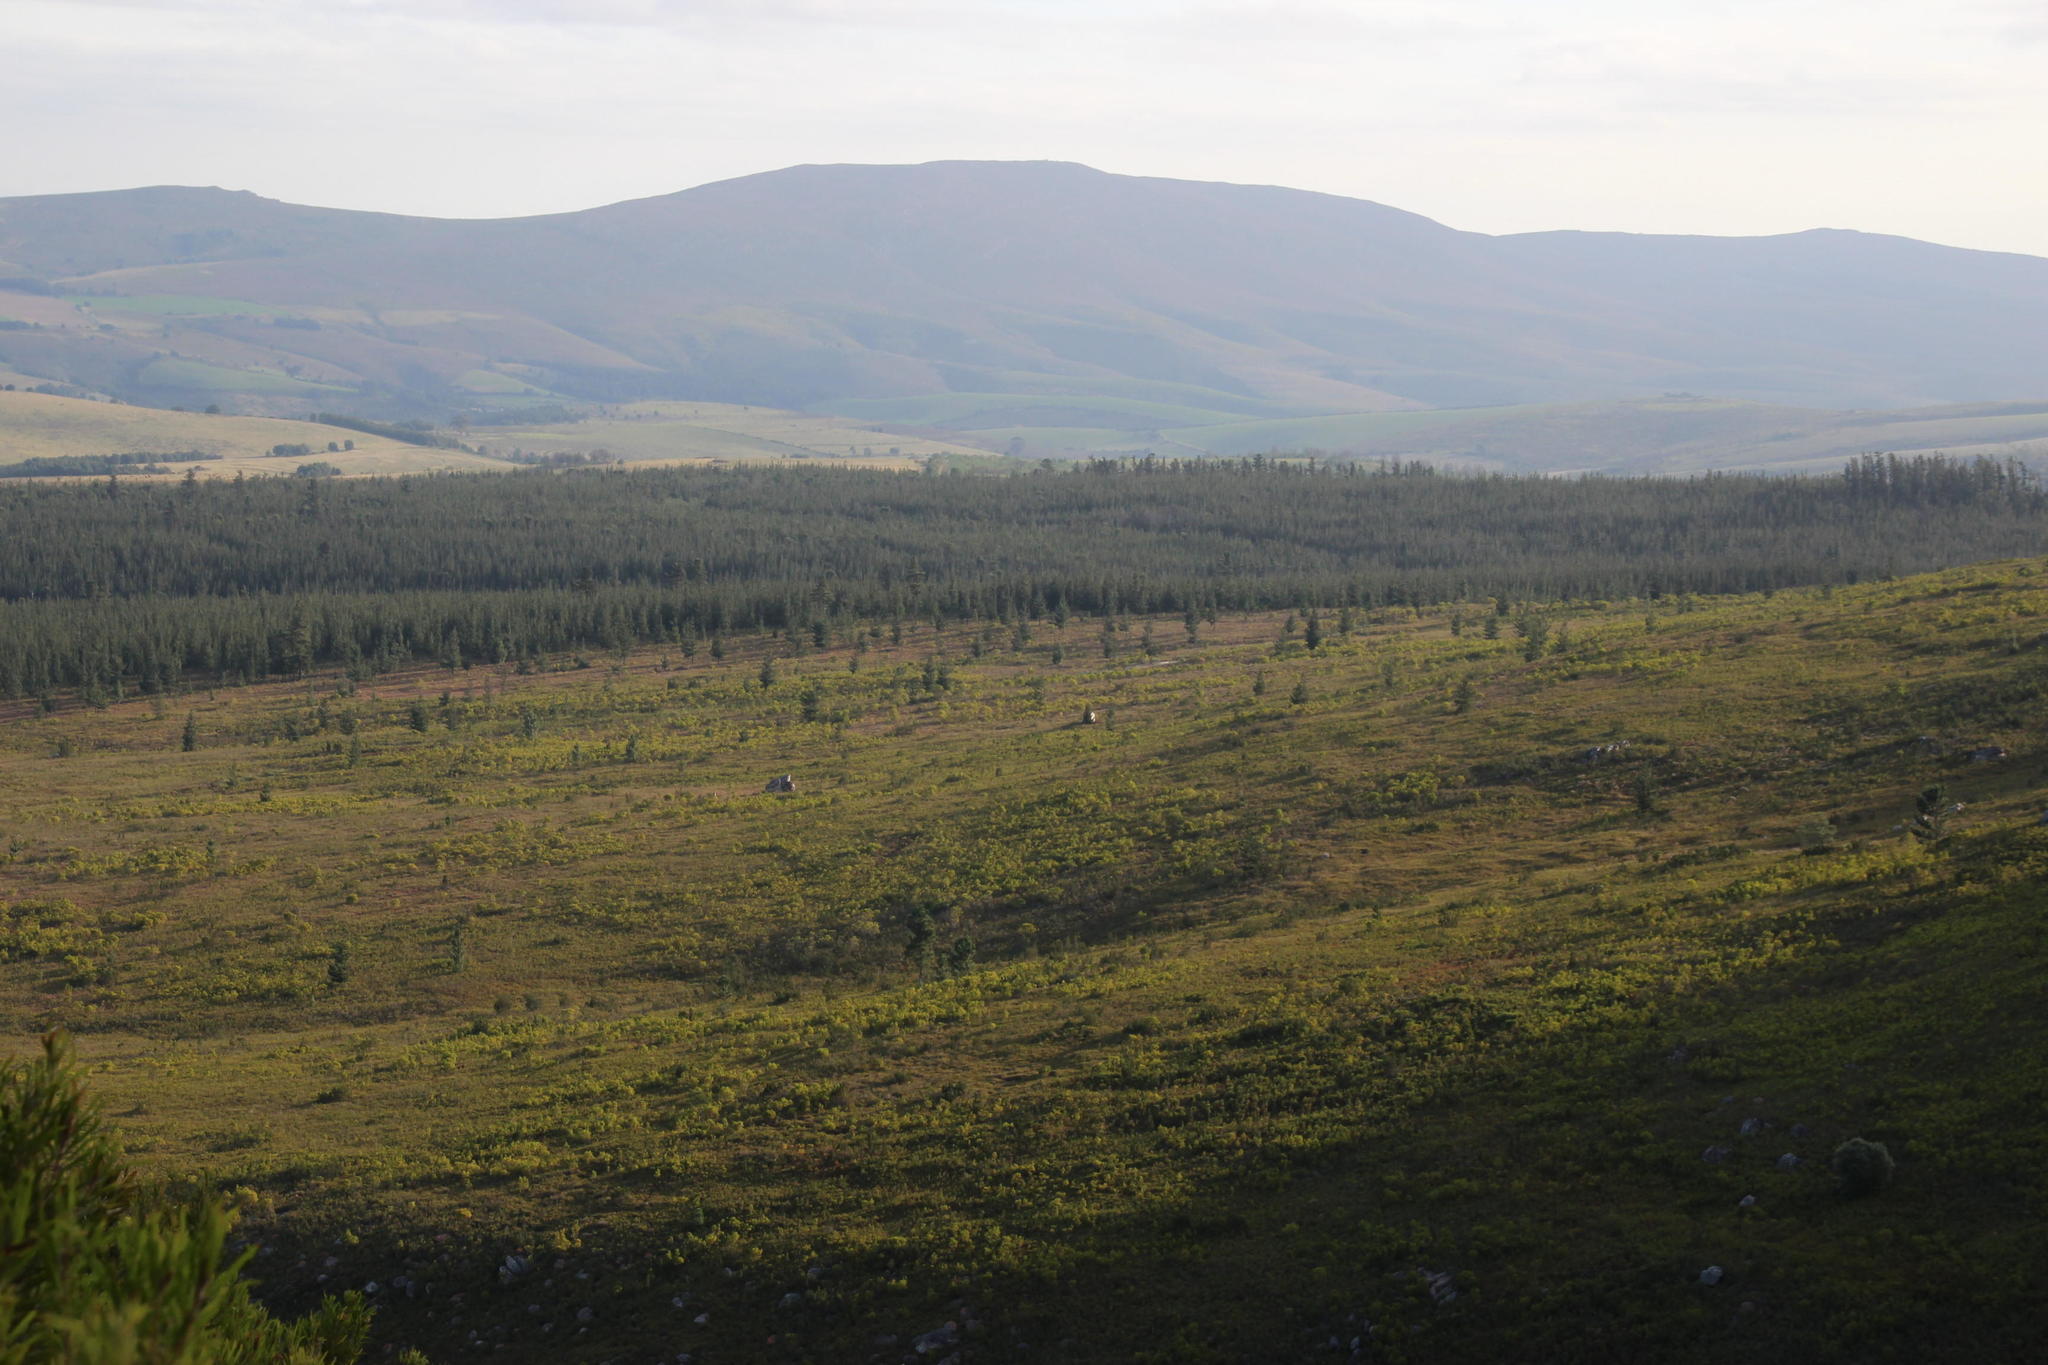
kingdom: Plantae
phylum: Tracheophyta
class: Pinopsida
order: Pinales
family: Pinaceae
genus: Pinus
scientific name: Pinus pinaster
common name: Maritime pine
